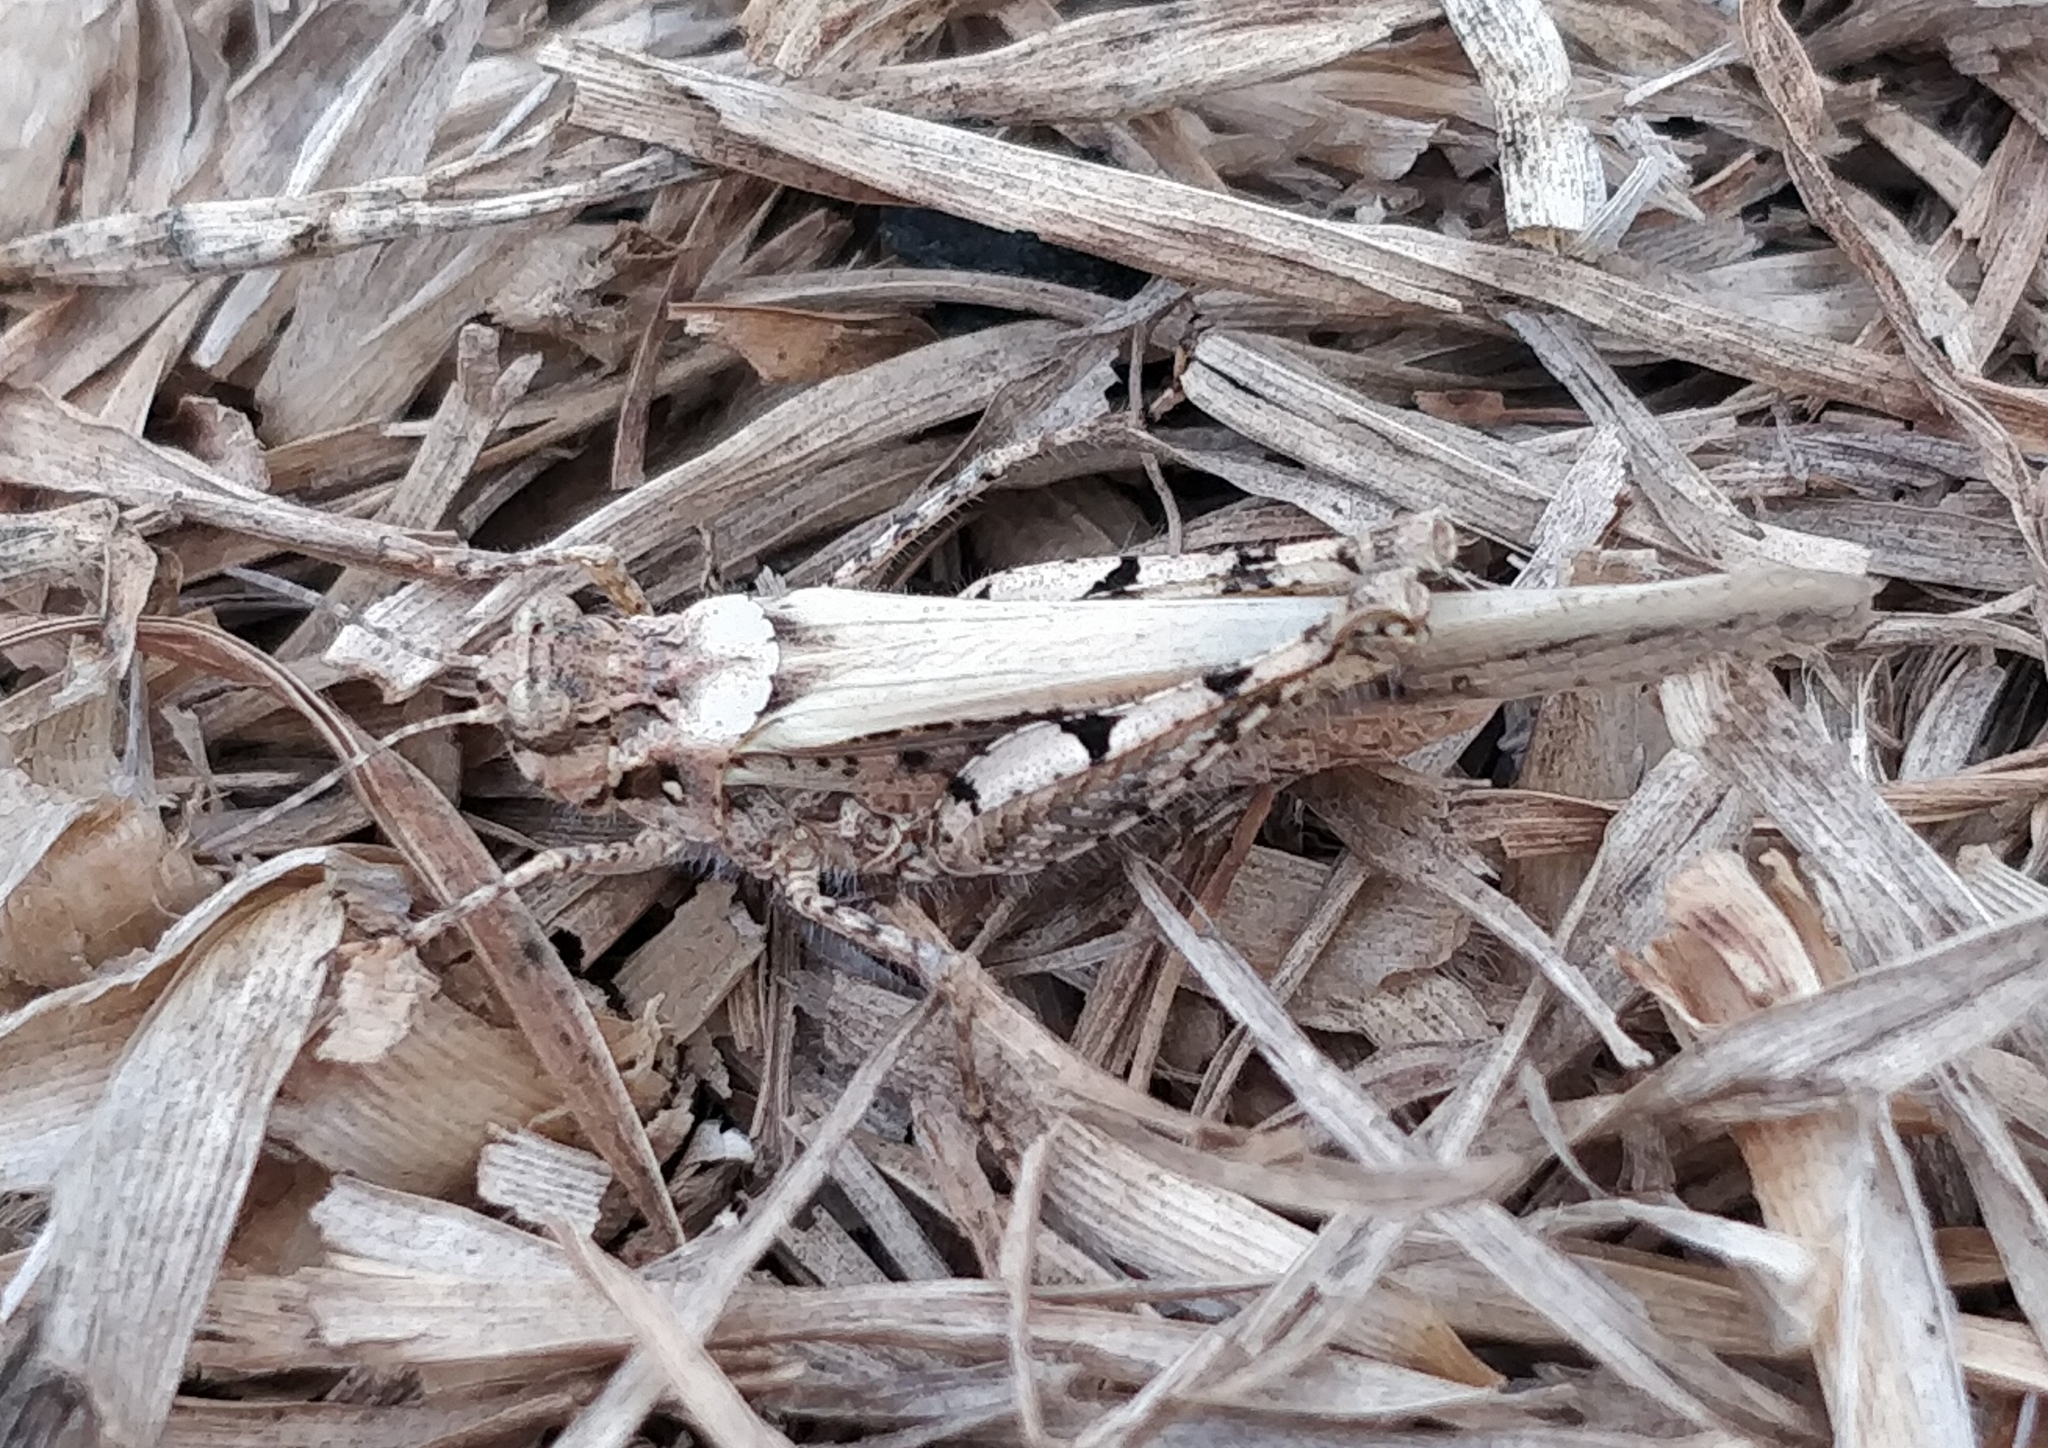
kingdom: Animalia
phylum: Arthropoda
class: Insecta
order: Orthoptera
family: Acrididae
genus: Acrotylus
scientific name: Acrotylus insubricus
